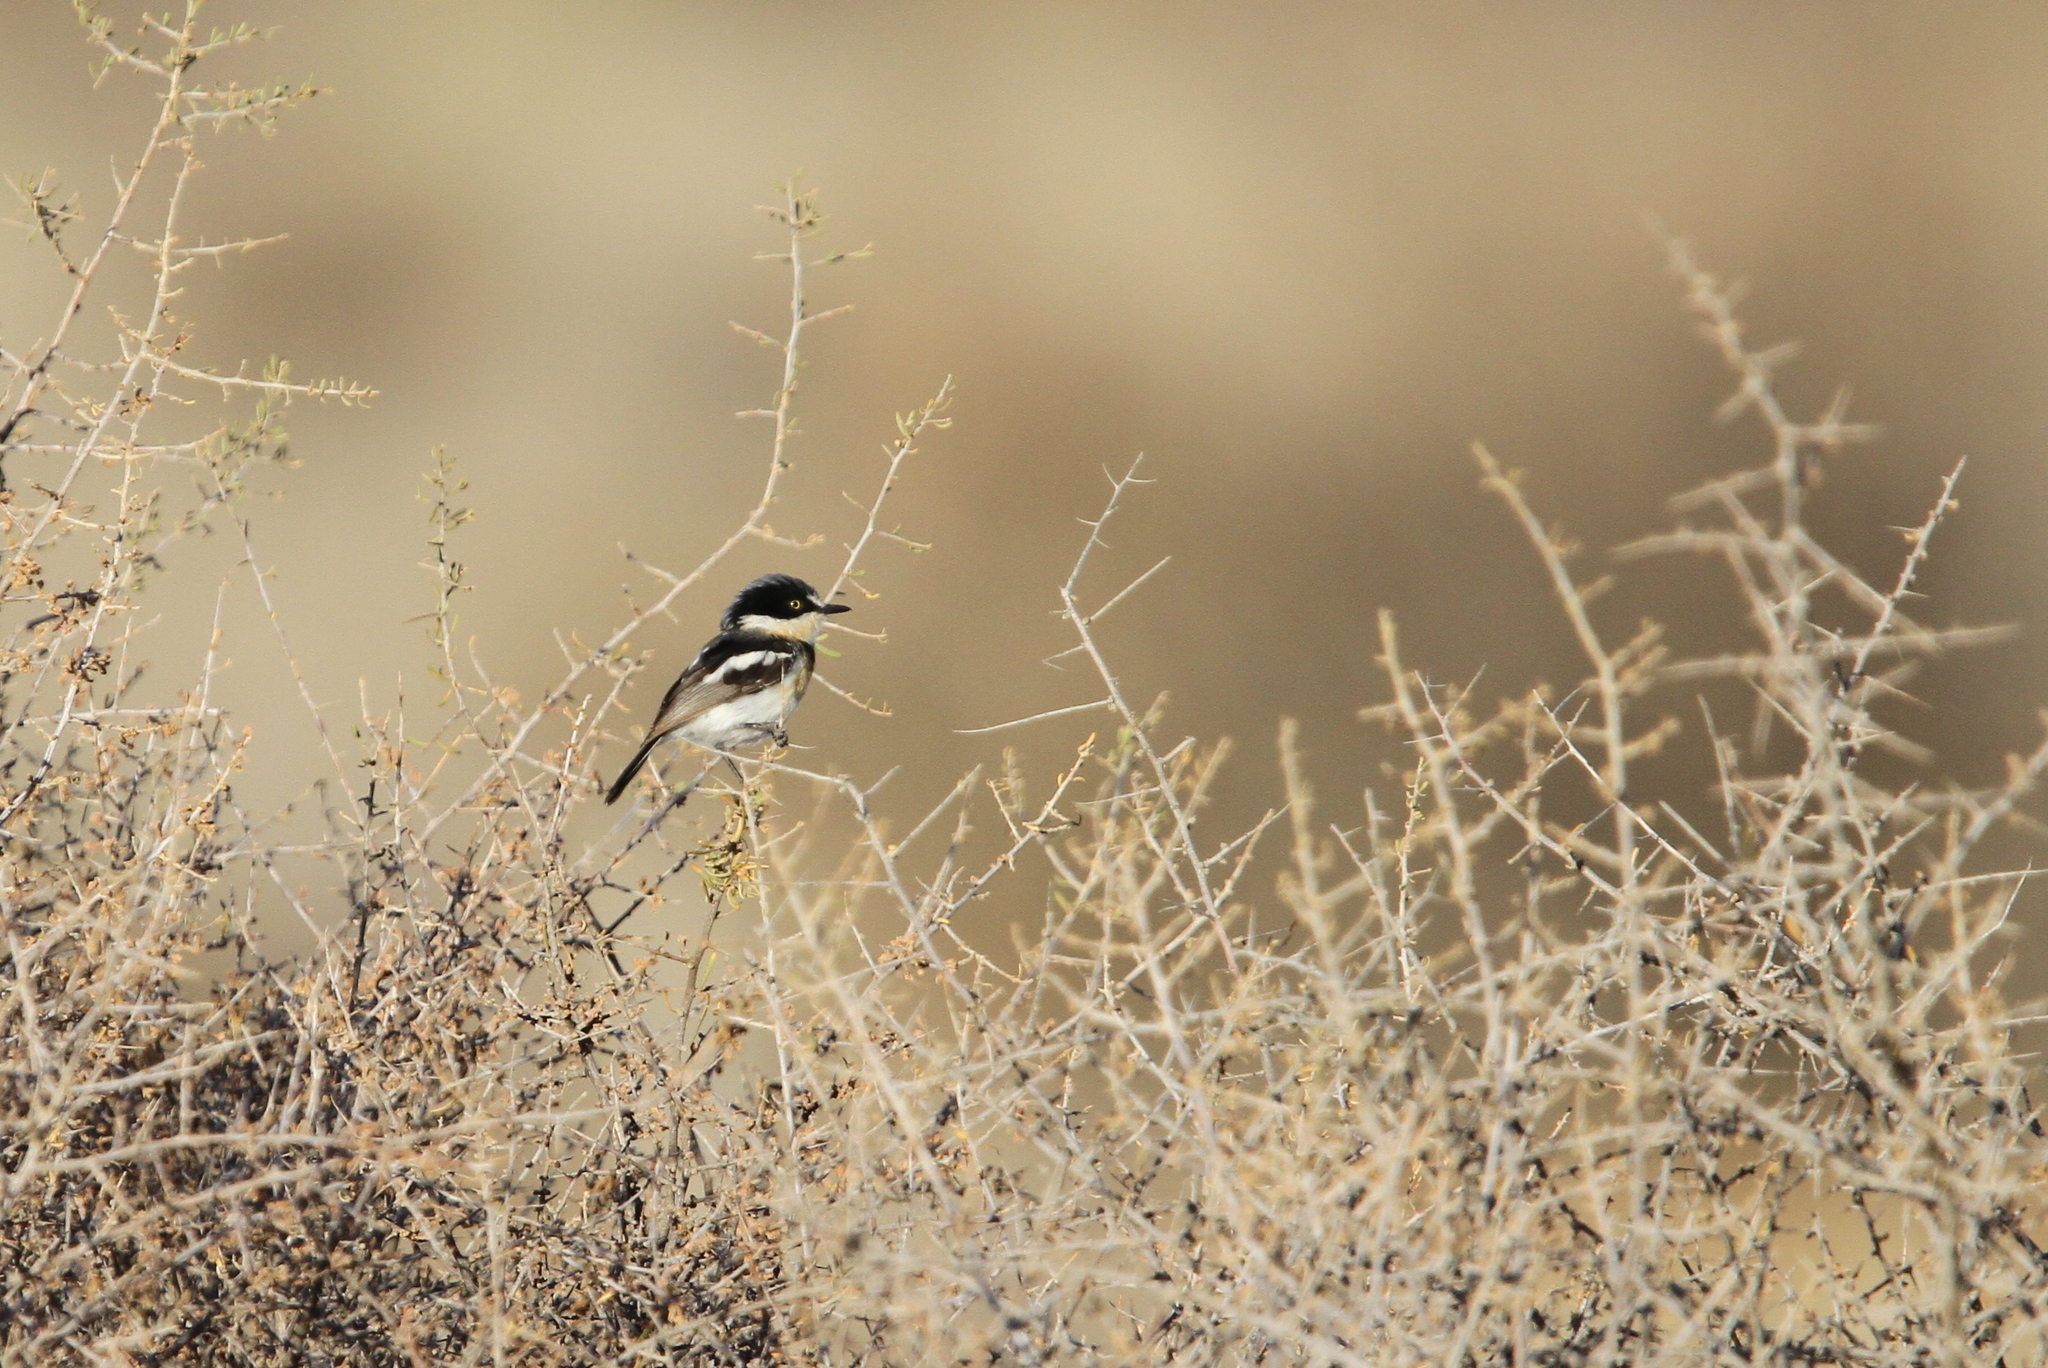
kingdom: Animalia
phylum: Chordata
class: Aves
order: Passeriformes
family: Platysteiridae
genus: Batis
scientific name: Batis pririt
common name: Pririt batis
